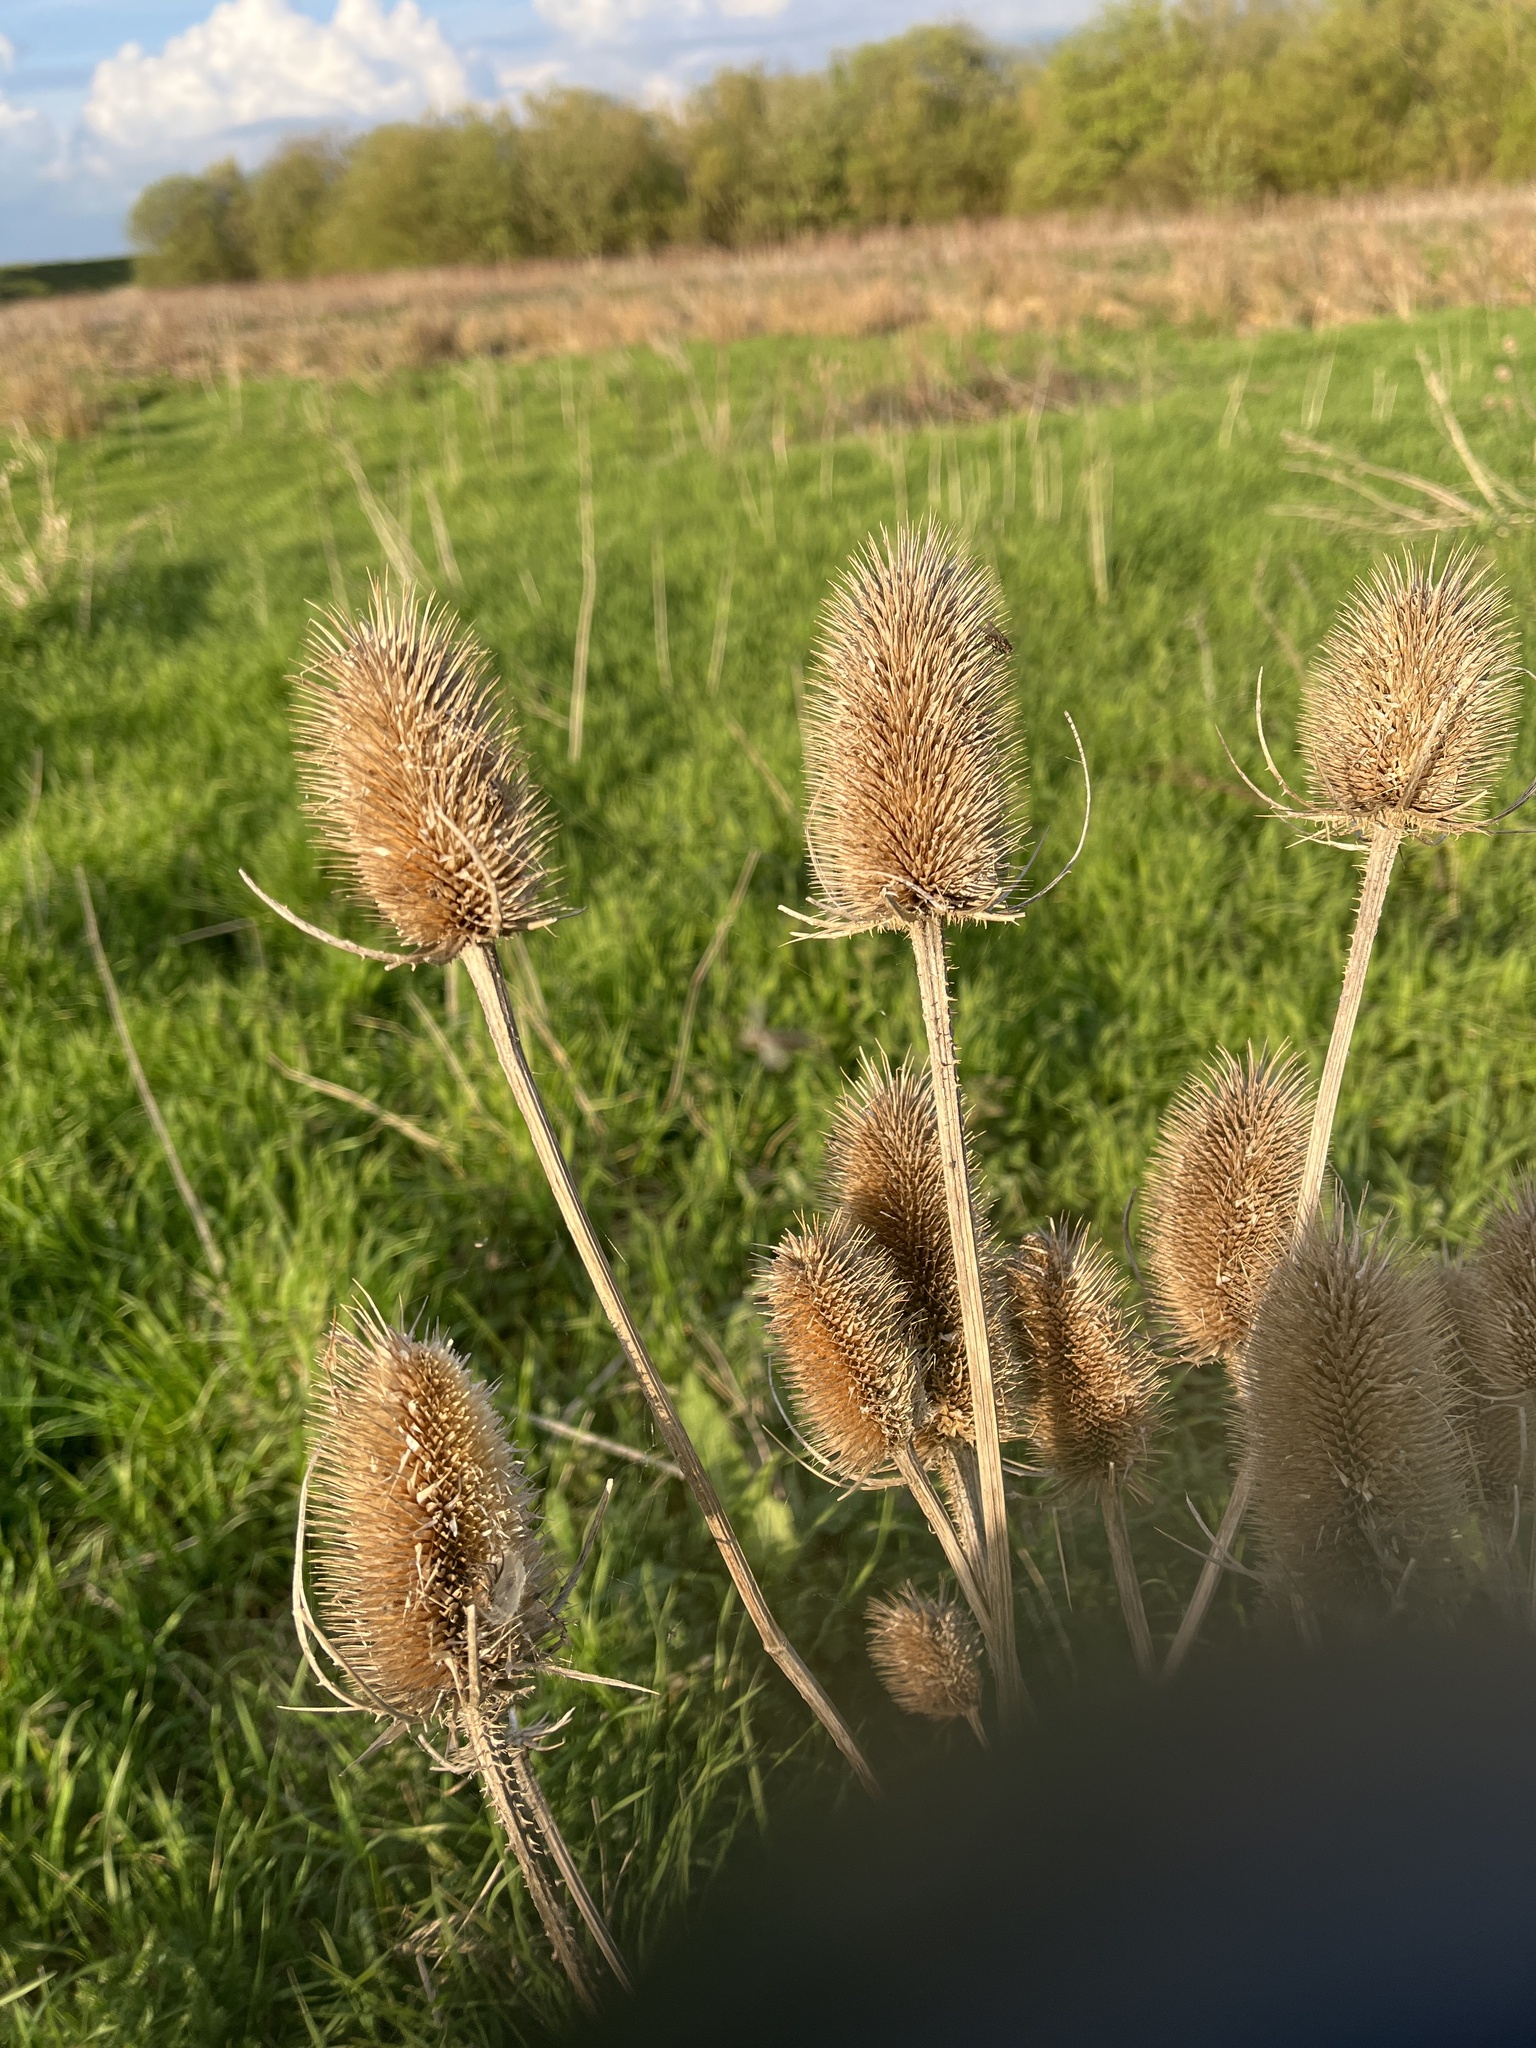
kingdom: Plantae
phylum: Tracheophyta
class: Magnoliopsida
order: Dipsacales
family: Caprifoliaceae
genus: Dipsacus
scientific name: Dipsacus fullonum
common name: Teasel
